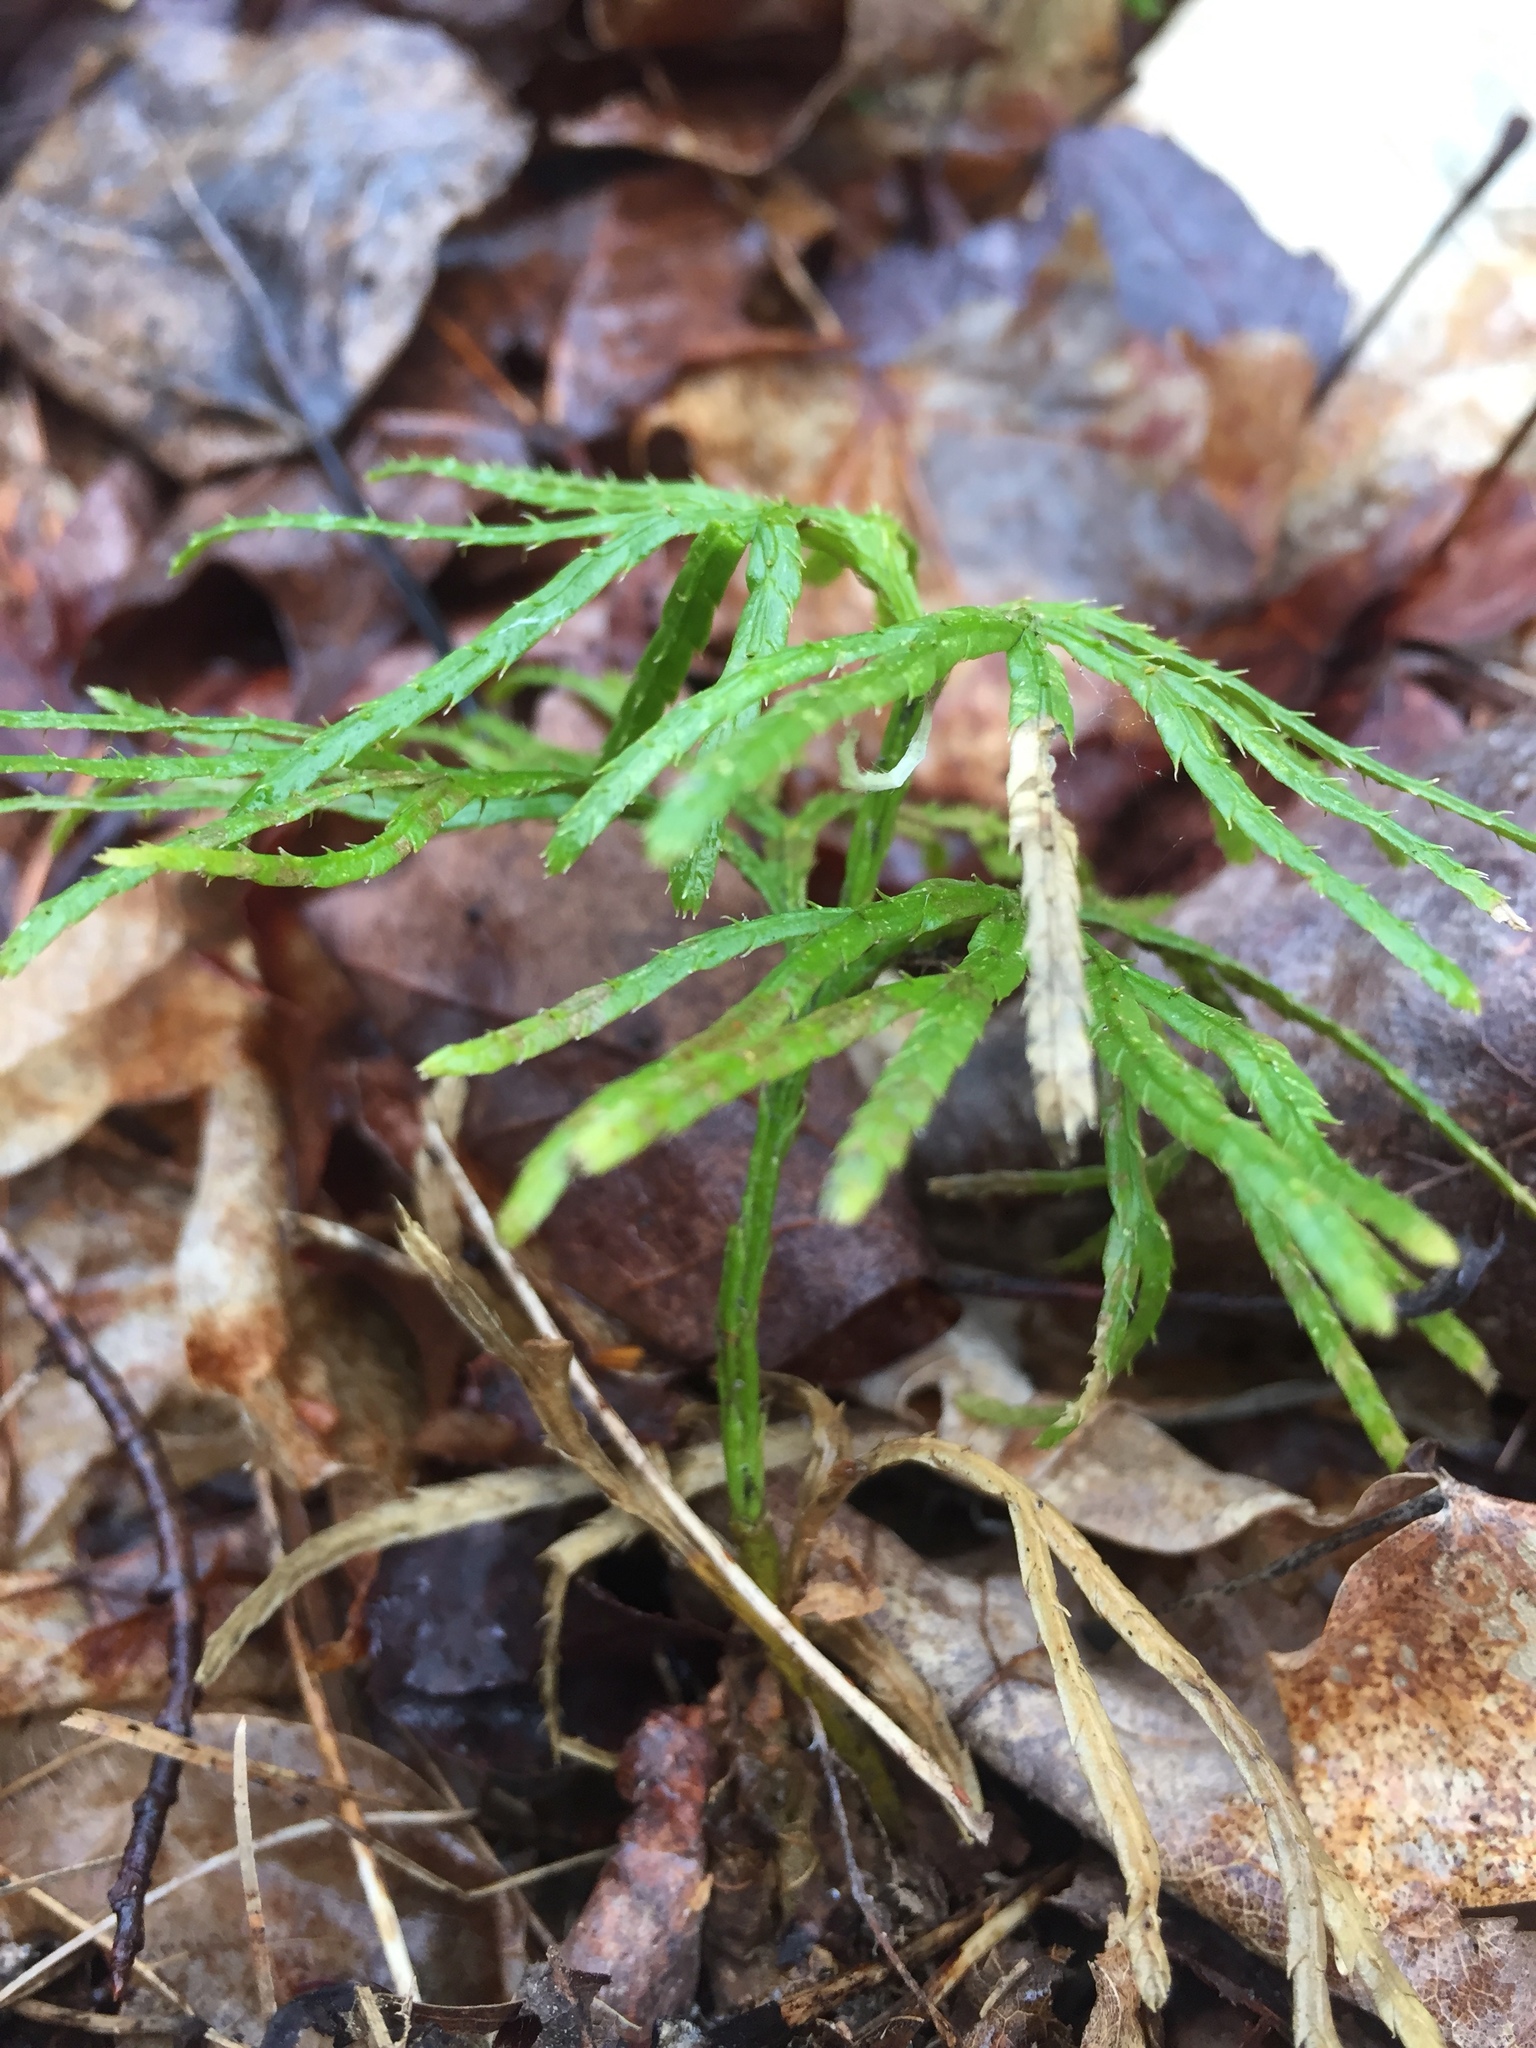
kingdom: Plantae
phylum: Tracheophyta
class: Lycopodiopsida
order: Lycopodiales
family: Lycopodiaceae
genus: Diphasiastrum
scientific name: Diphasiastrum digitatum
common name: Southern running-pine
